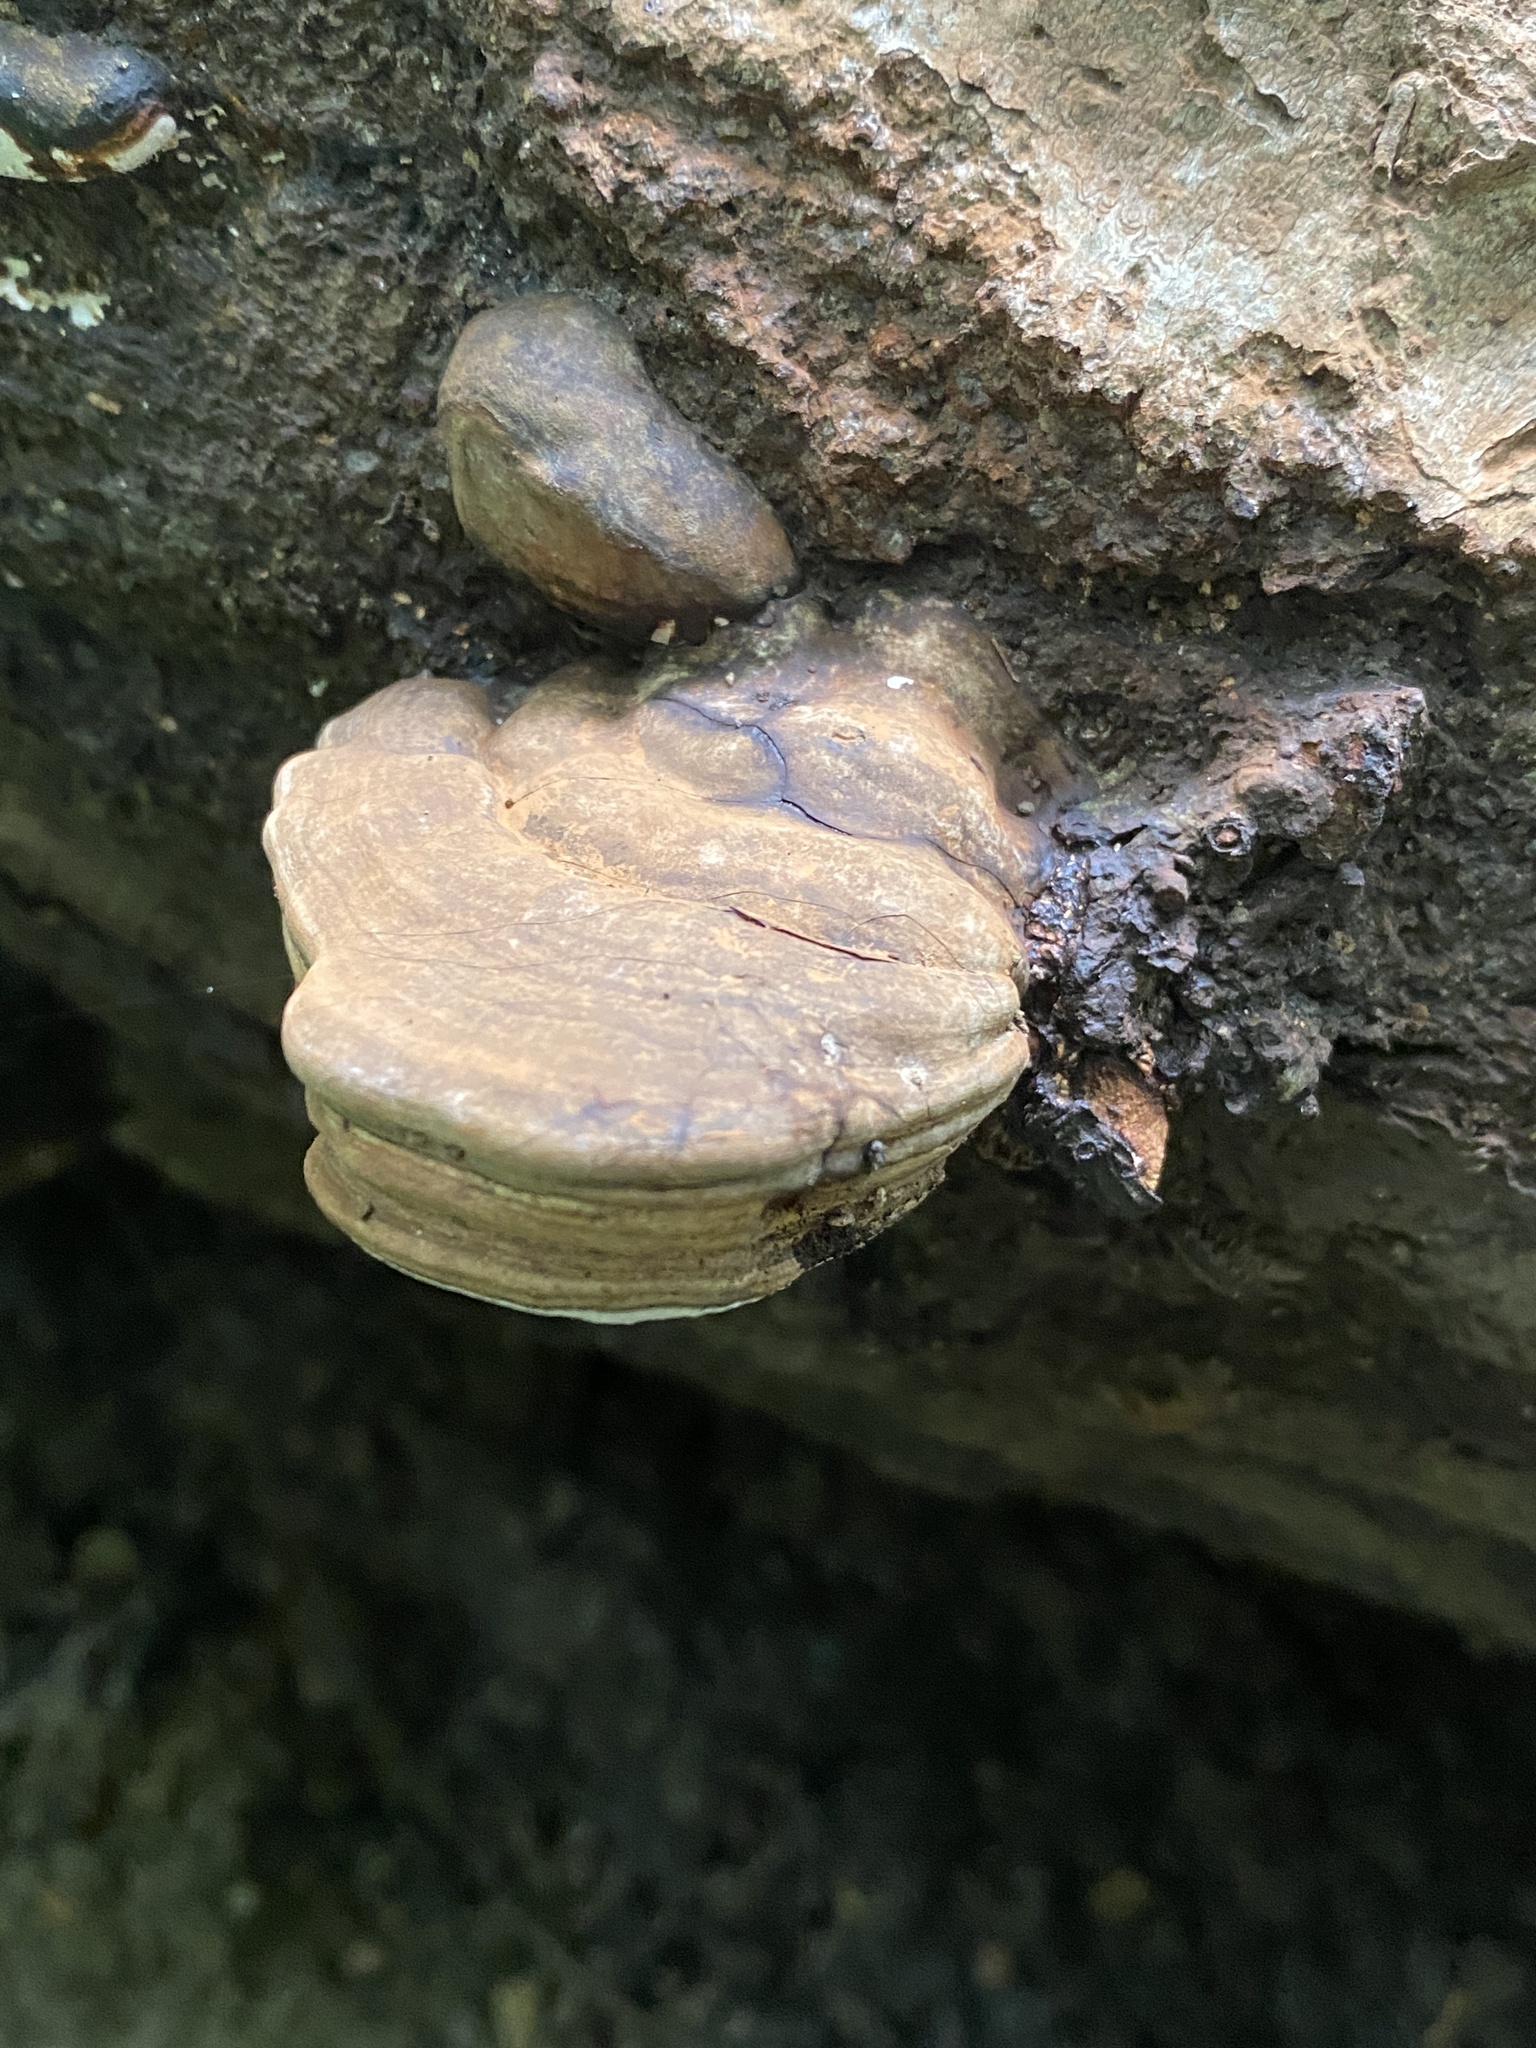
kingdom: Fungi
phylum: Basidiomycota
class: Agaricomycetes
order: Polyporales
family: Polyporaceae
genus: Ganoderma
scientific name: Ganoderma applanatum
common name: Artist's bracket
